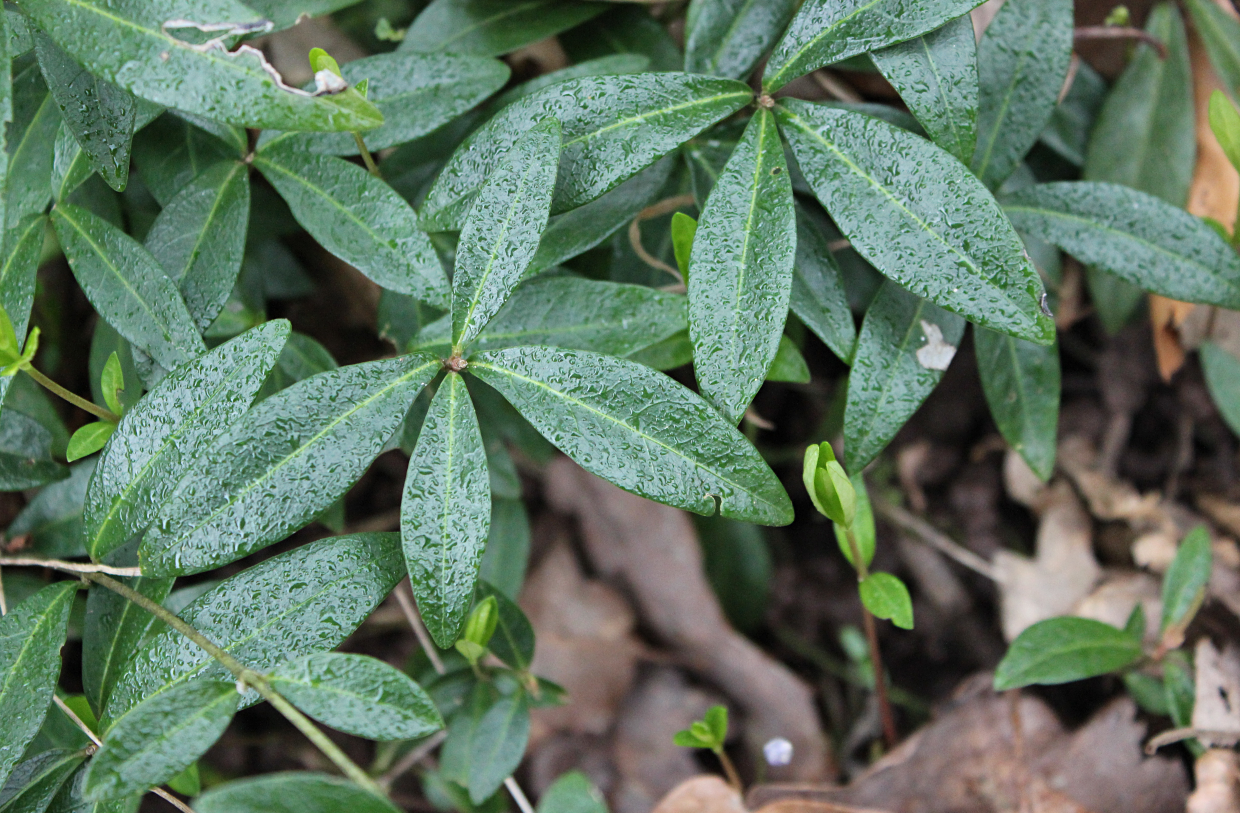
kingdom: Plantae
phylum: Tracheophyta
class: Magnoliopsida
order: Gentianales
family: Apocynaceae
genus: Vinca
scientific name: Vinca minor
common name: Lesser periwinkle
